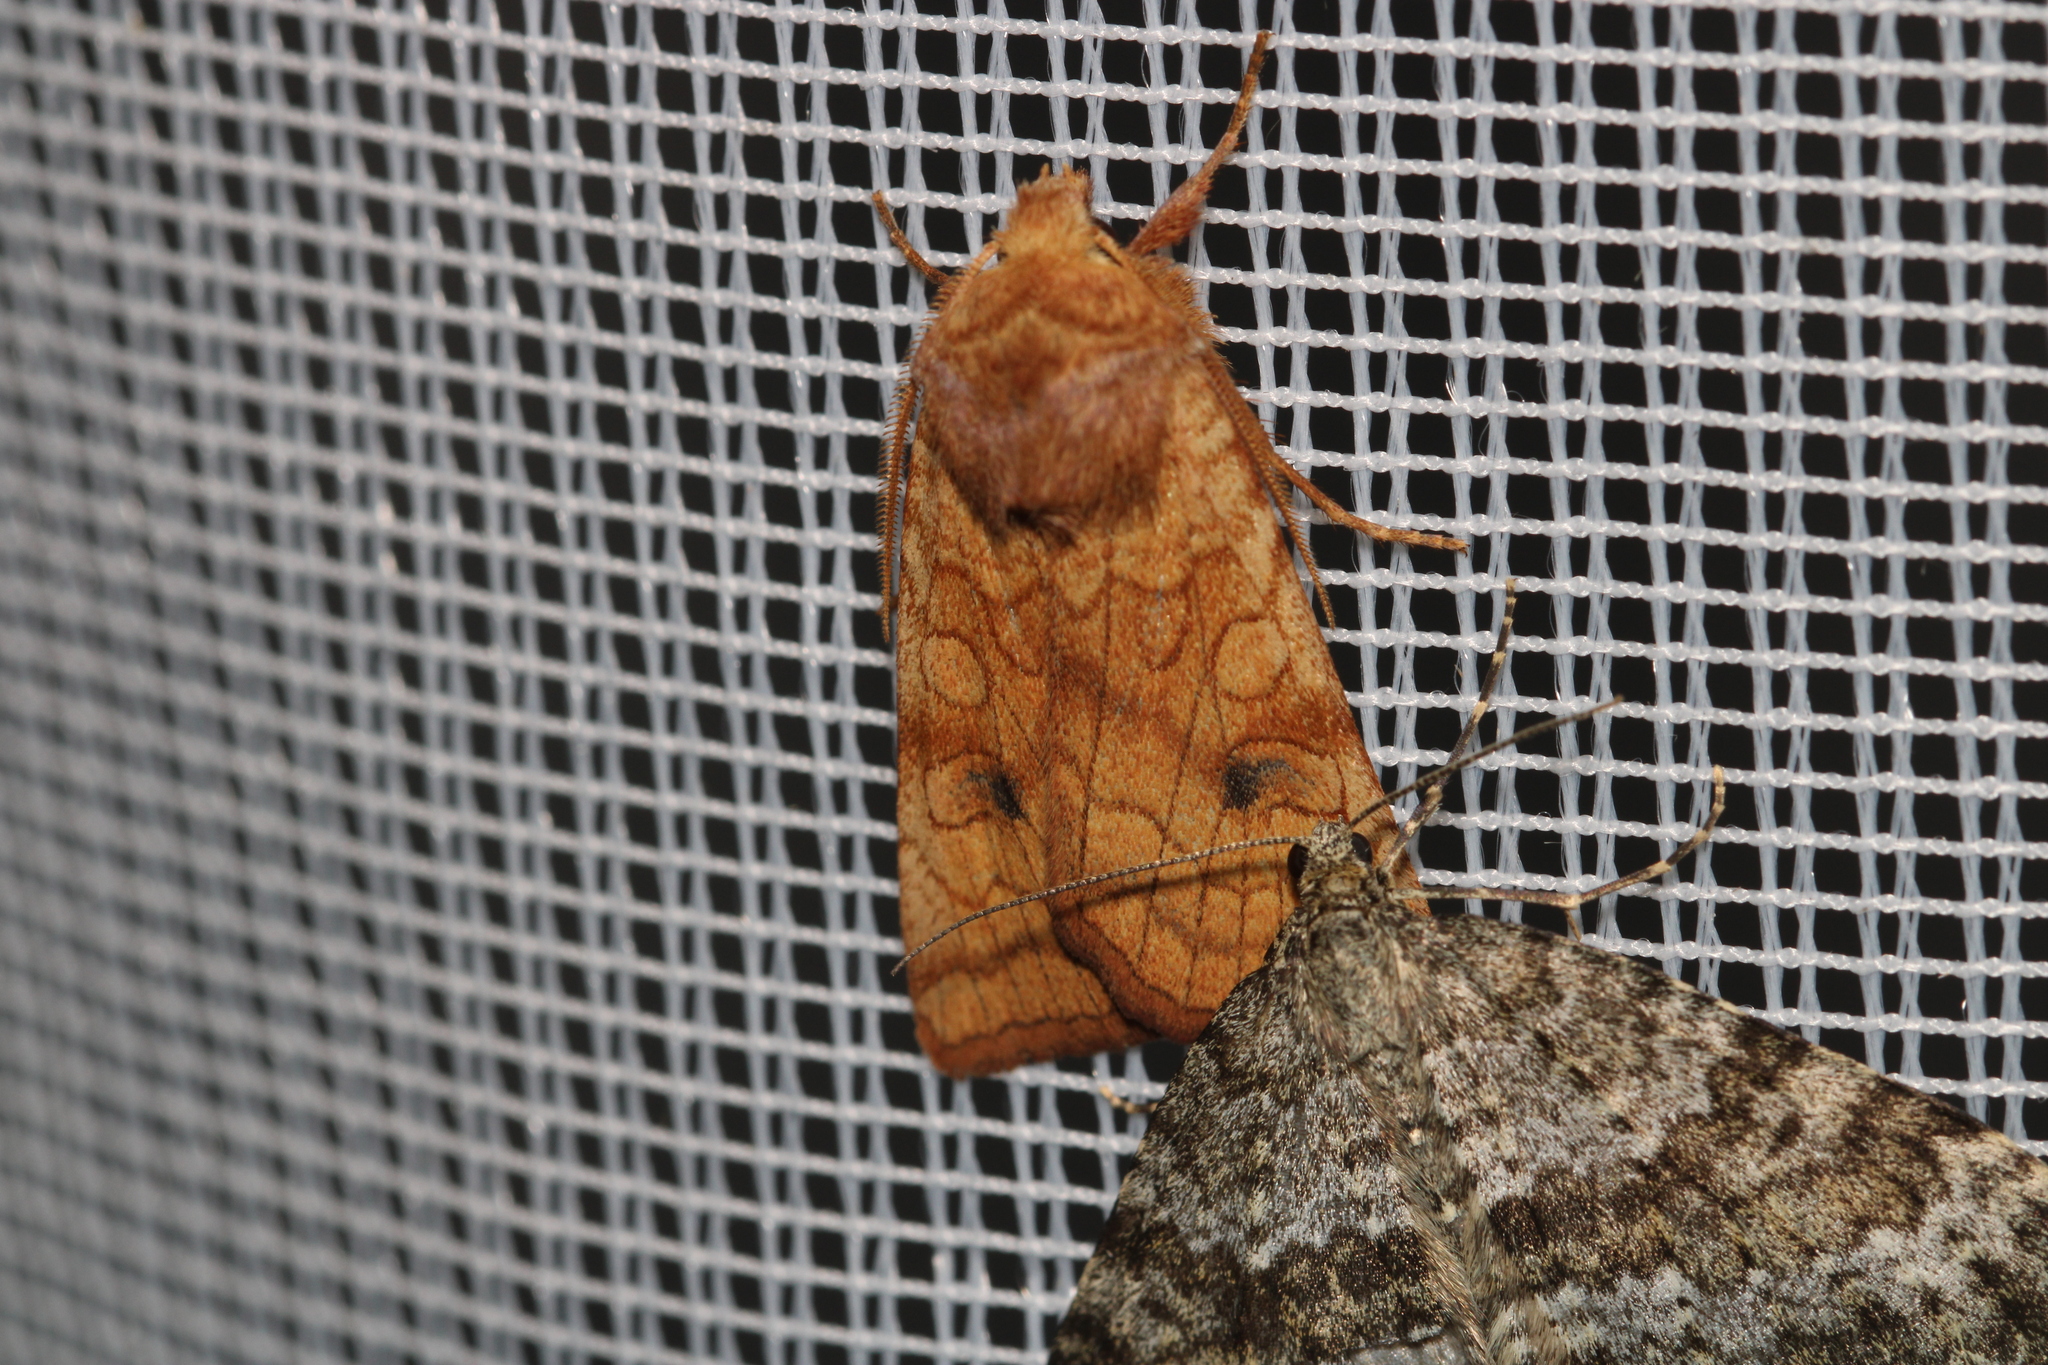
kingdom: Animalia
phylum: Arthropoda
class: Insecta
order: Lepidoptera
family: Noctuidae
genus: Xestia
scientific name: Xestia ochreago
